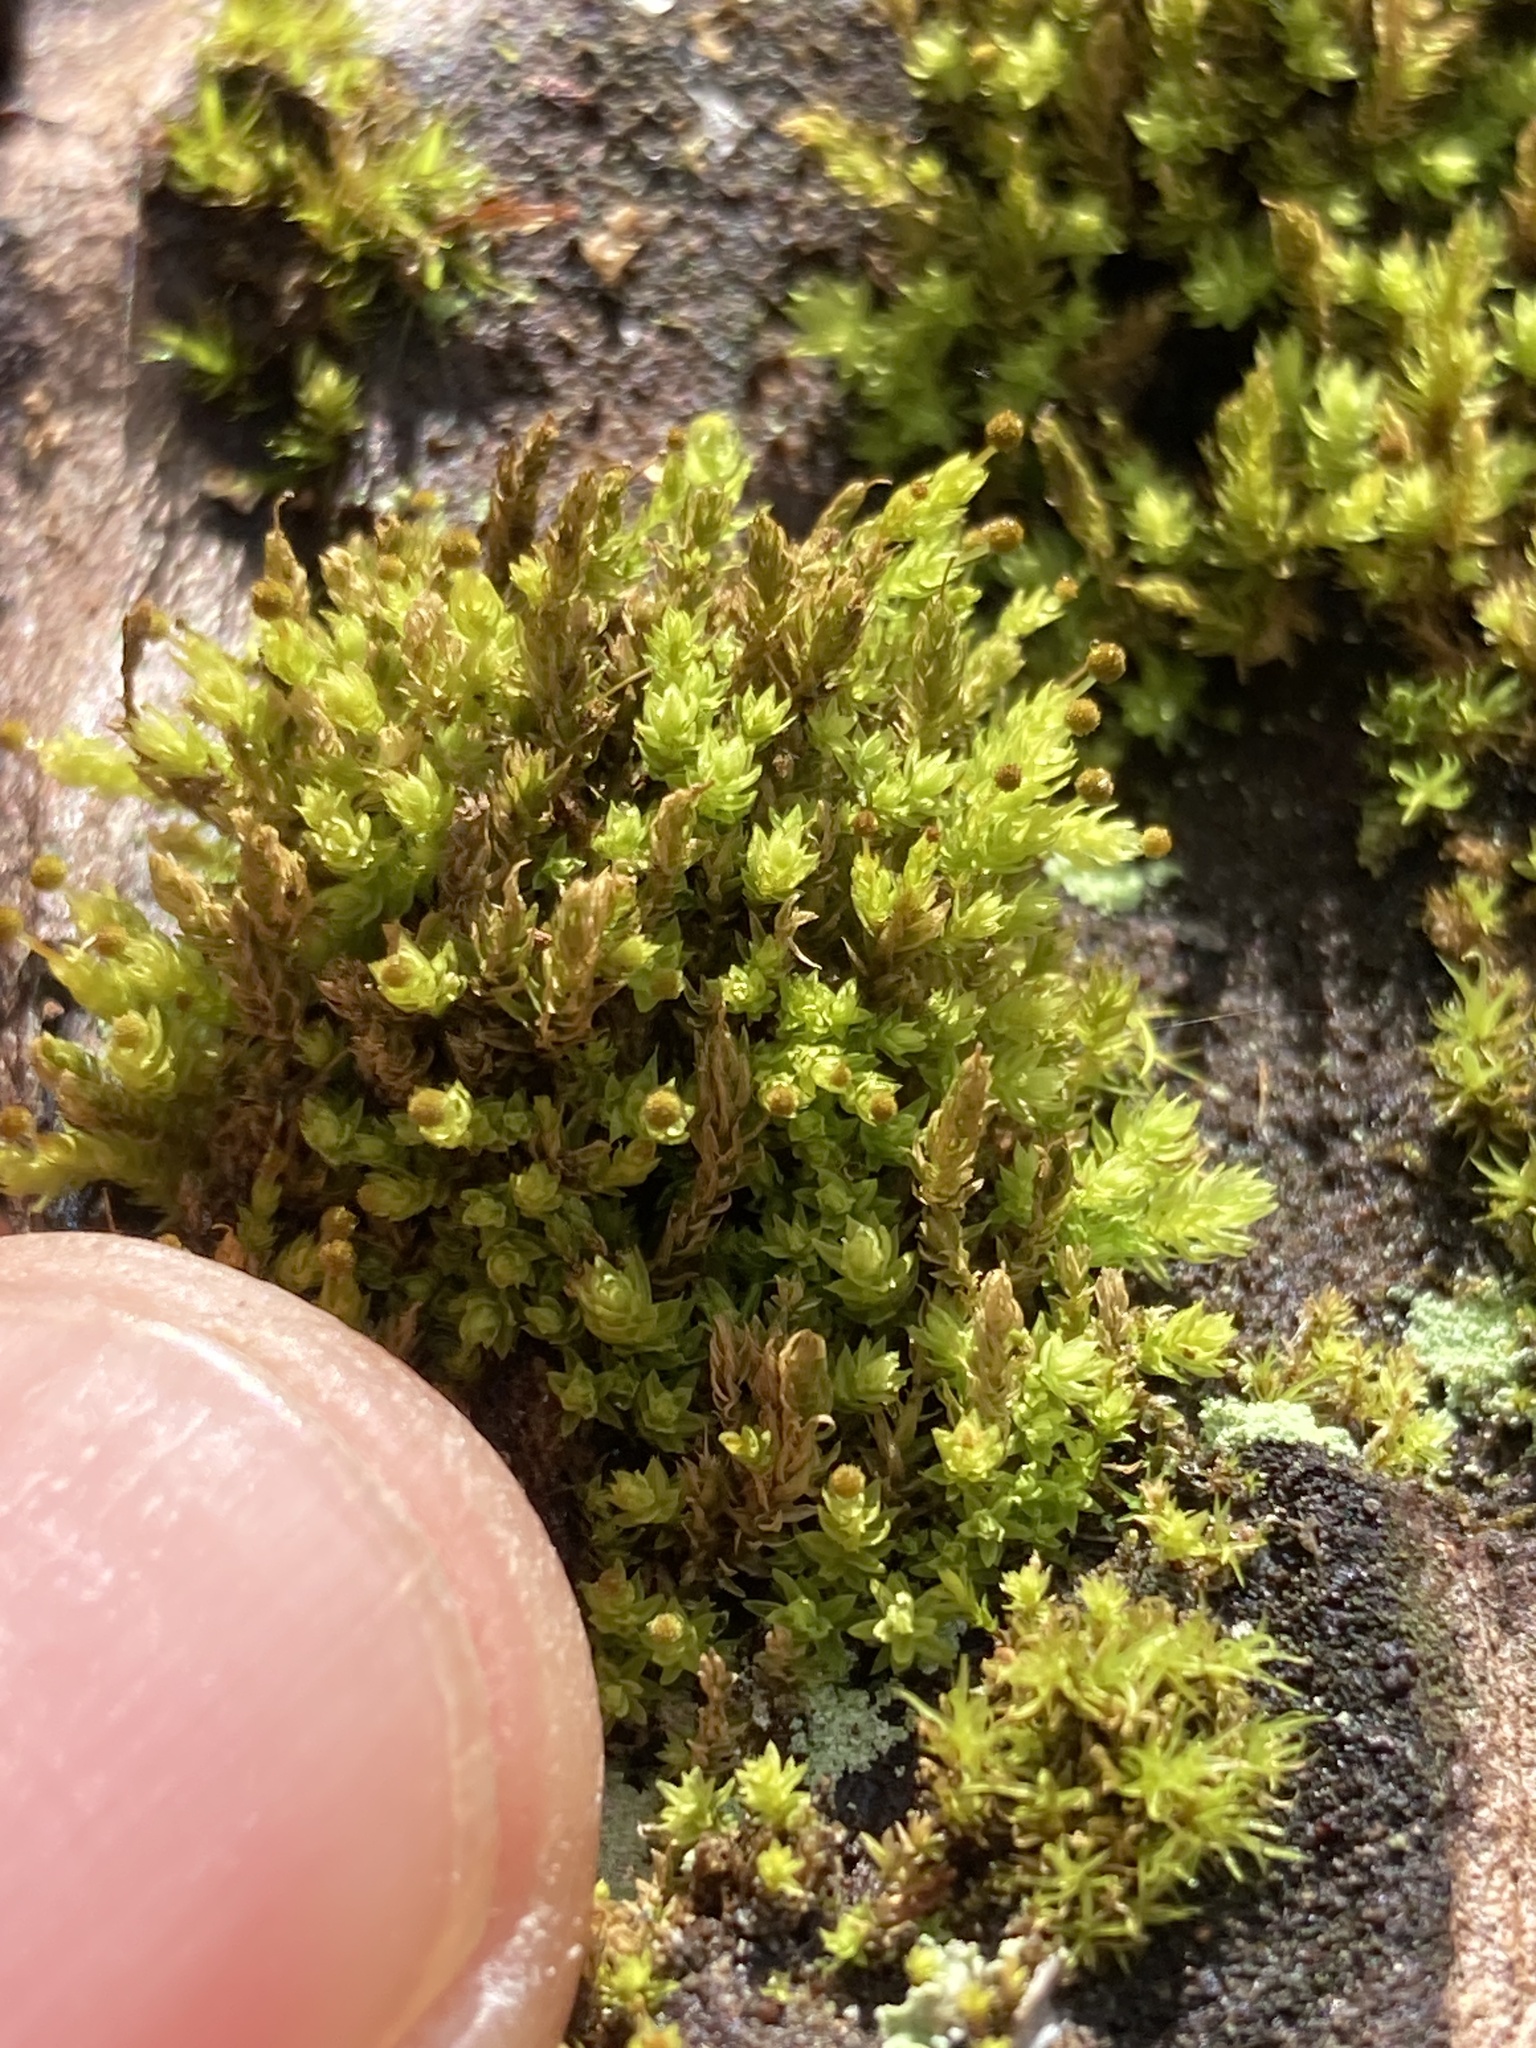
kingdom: Plantae
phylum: Bryophyta
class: Bryopsida
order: Aulacomniales
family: Aulacomniaceae
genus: Aulacomnium
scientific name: Aulacomnium androgynum
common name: Little groove moss
